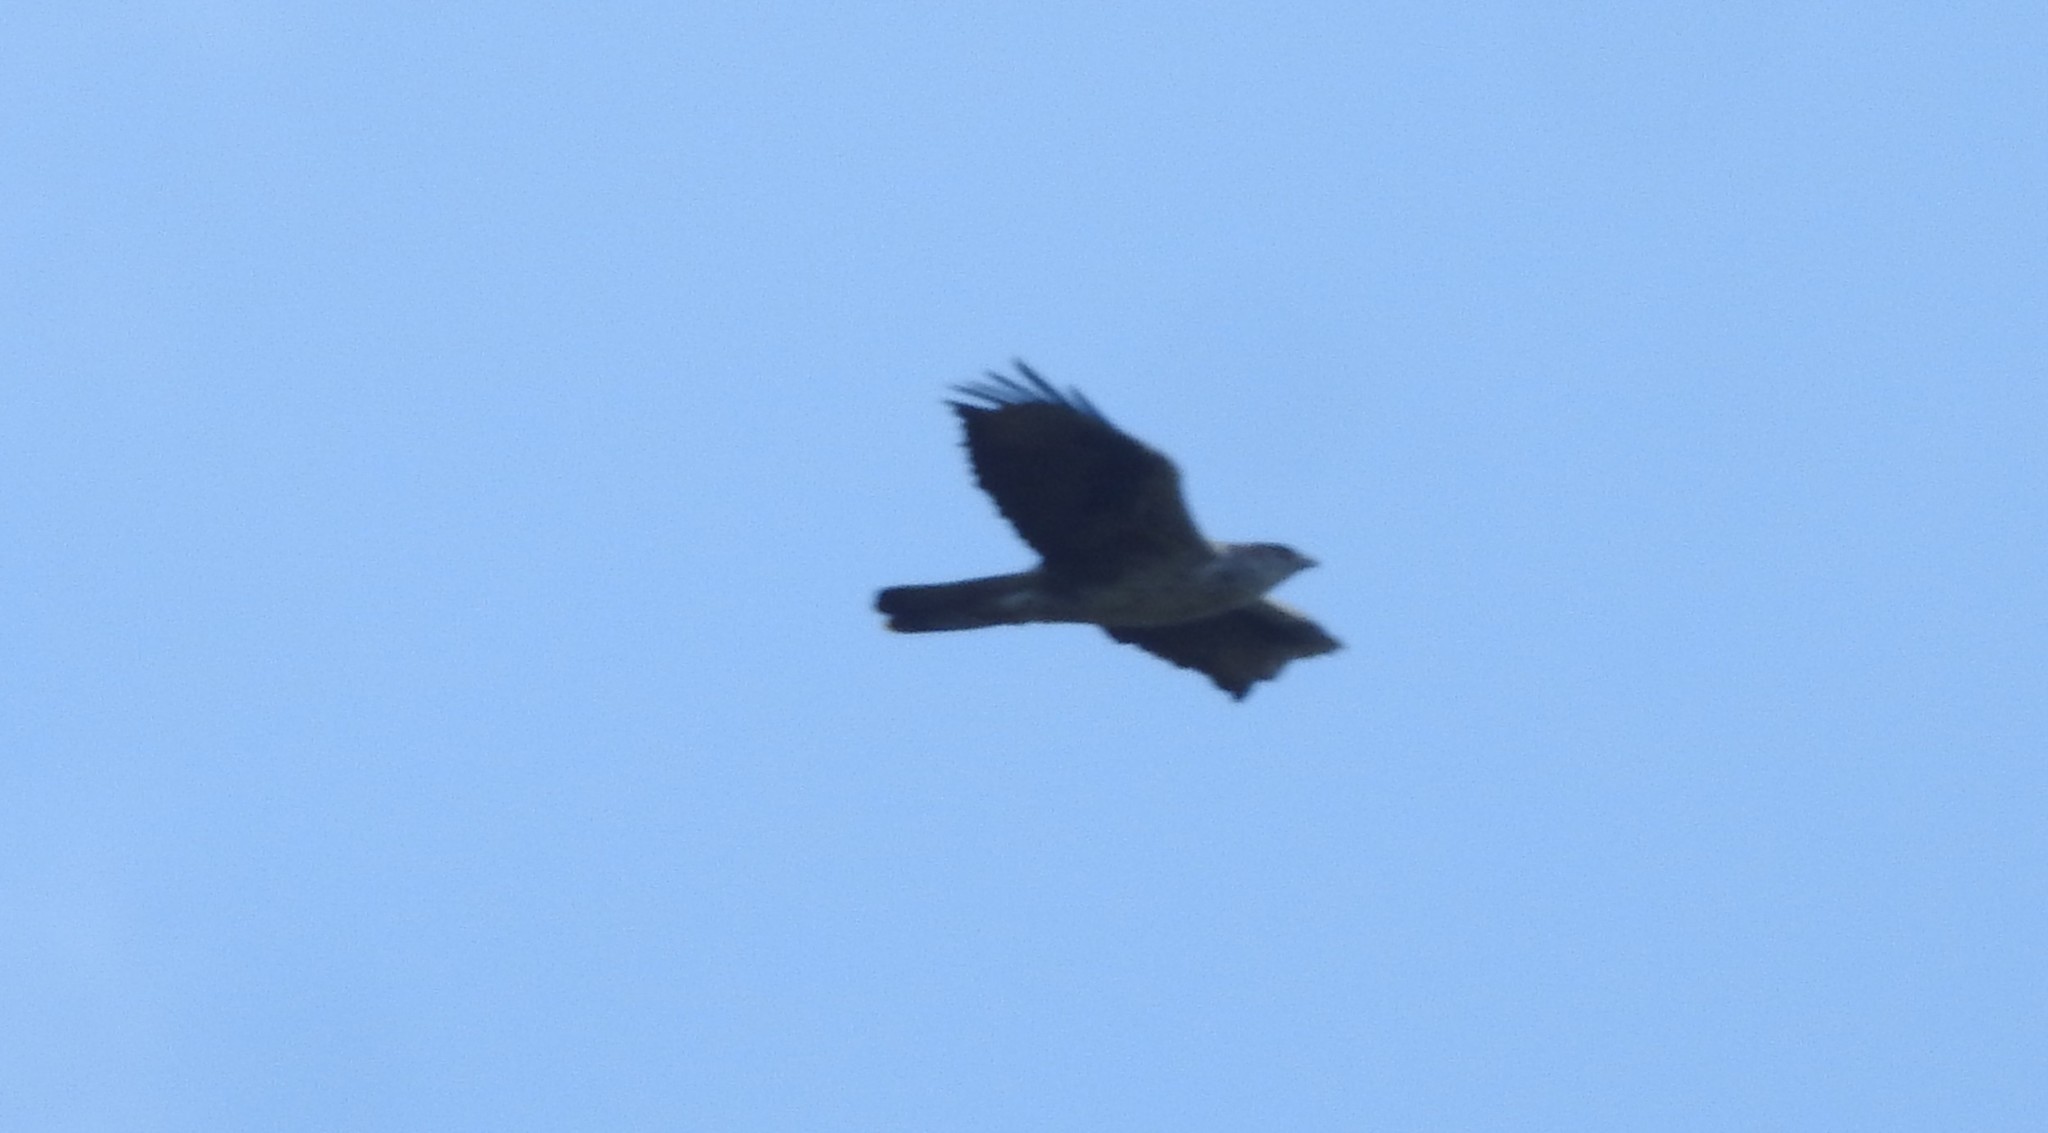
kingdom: Animalia
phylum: Chordata
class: Aves
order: Accipitriformes
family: Accipitridae
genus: Aquila
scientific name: Aquila fasciata
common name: Bonelli's eagle
